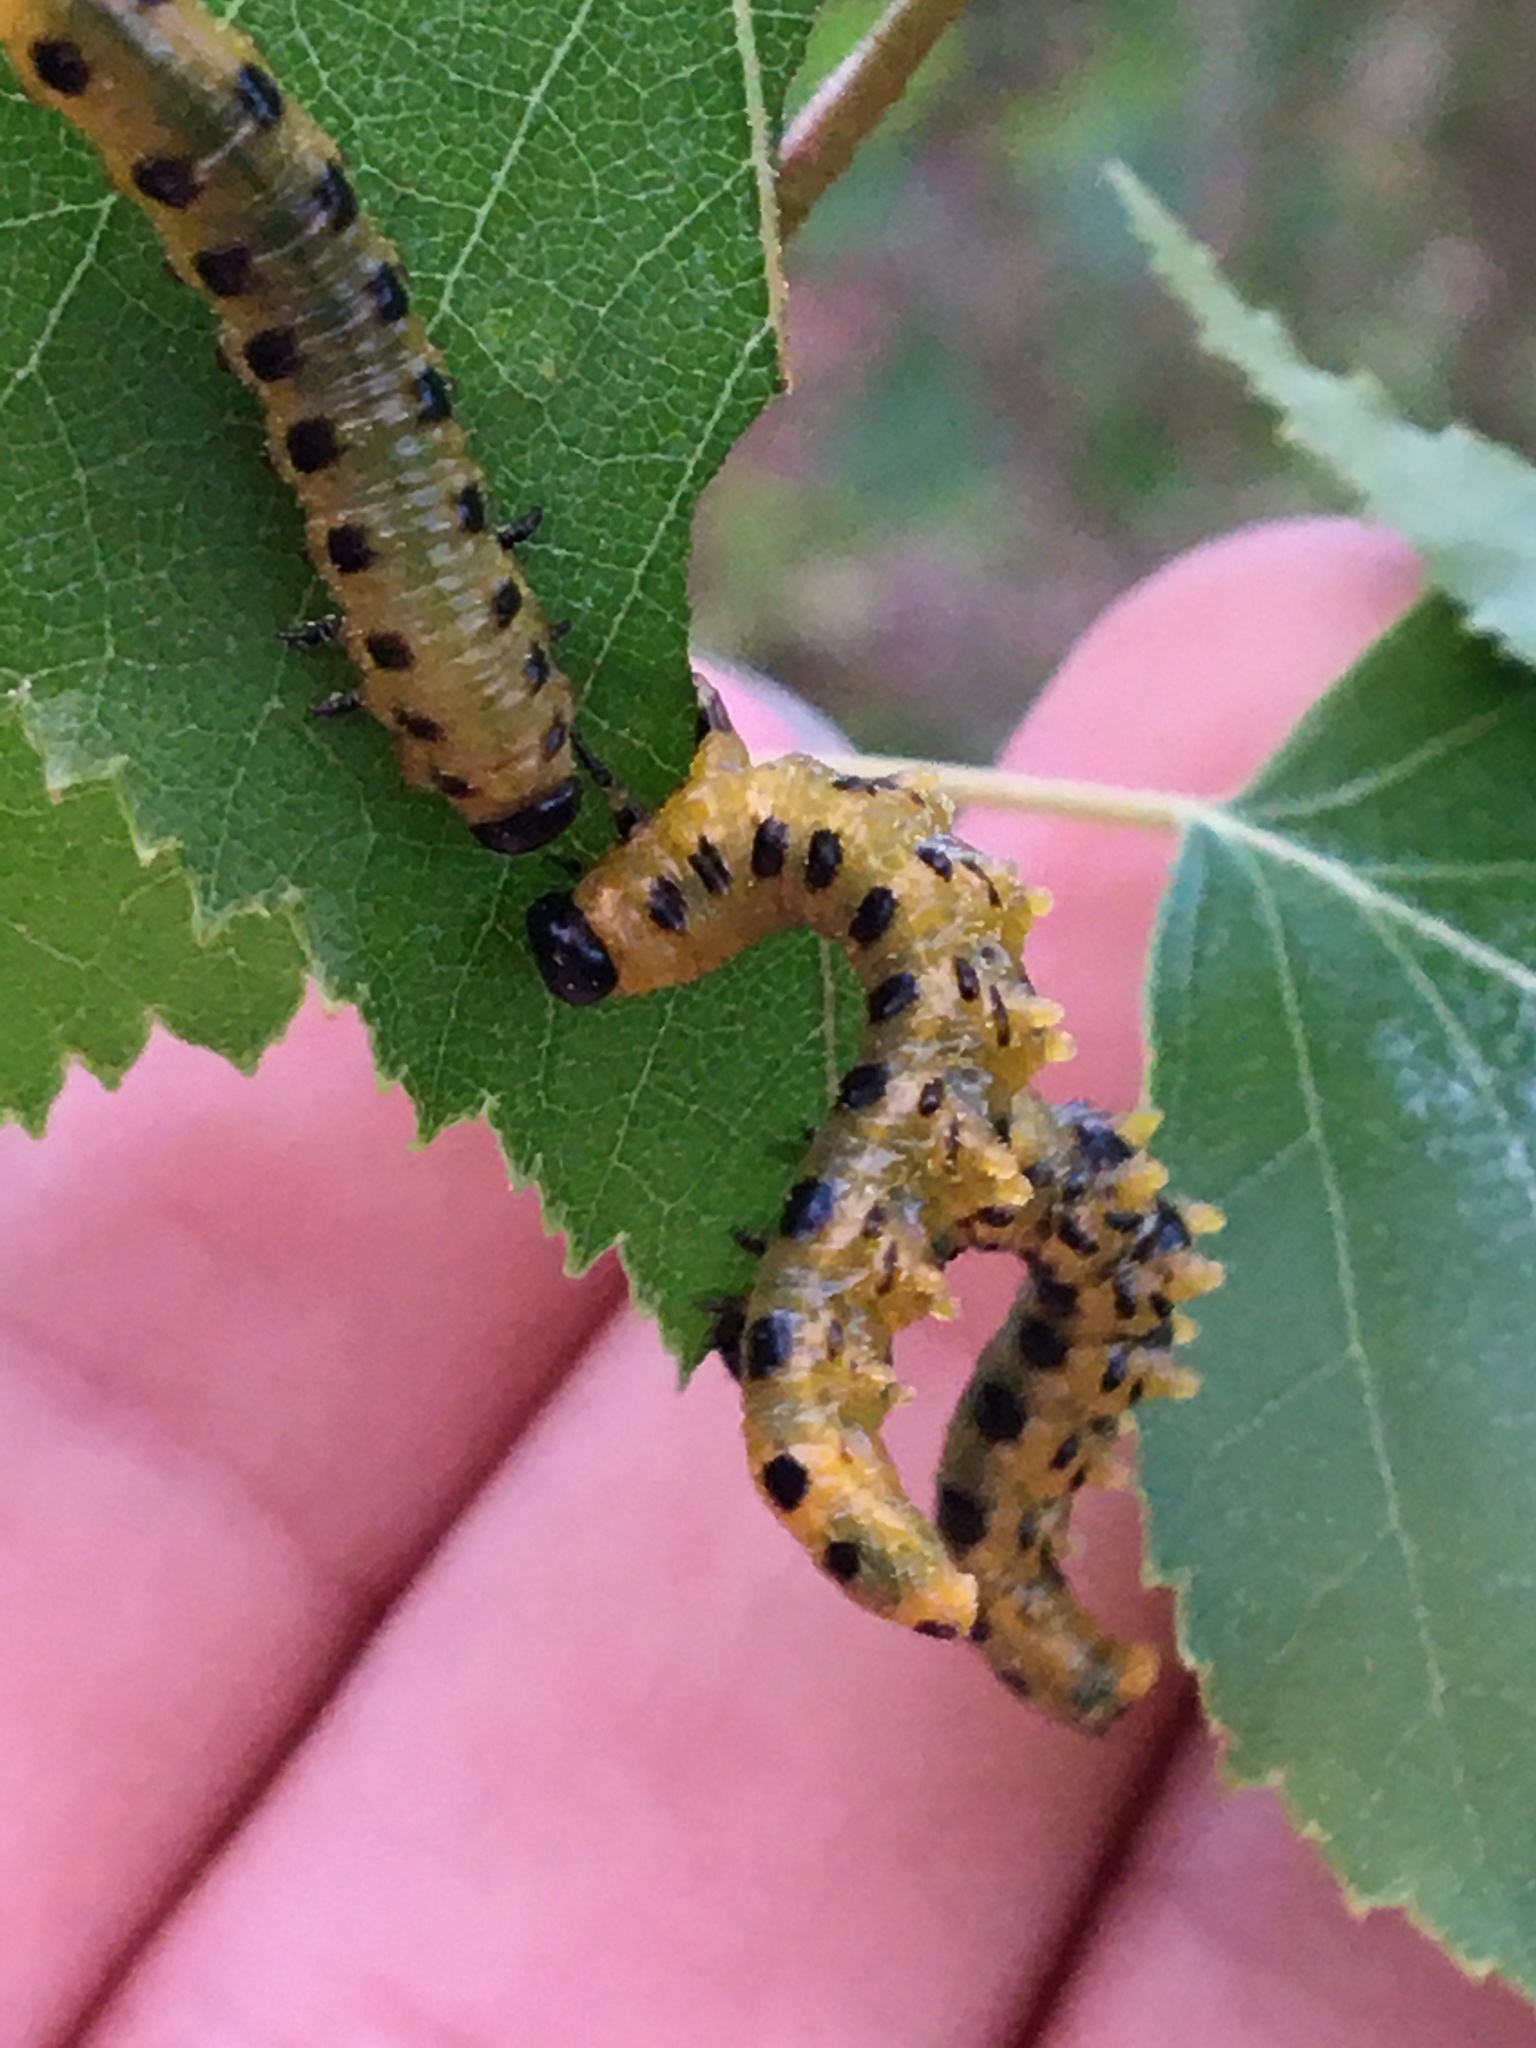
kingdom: Animalia
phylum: Arthropoda
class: Insecta
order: Hymenoptera
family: Tenthredinidae
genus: Nematus
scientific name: Nematus
